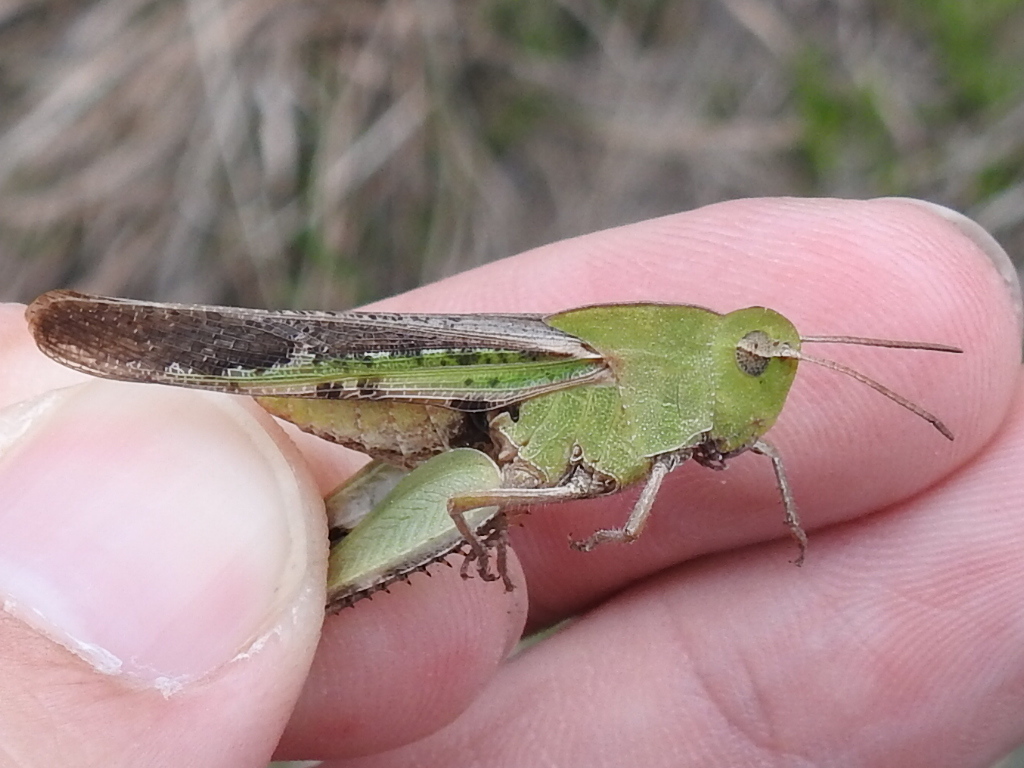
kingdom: Animalia
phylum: Arthropoda
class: Insecta
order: Orthoptera
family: Acrididae
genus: Chortophaga
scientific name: Chortophaga viridifasciata
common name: Green-striped grasshopper
